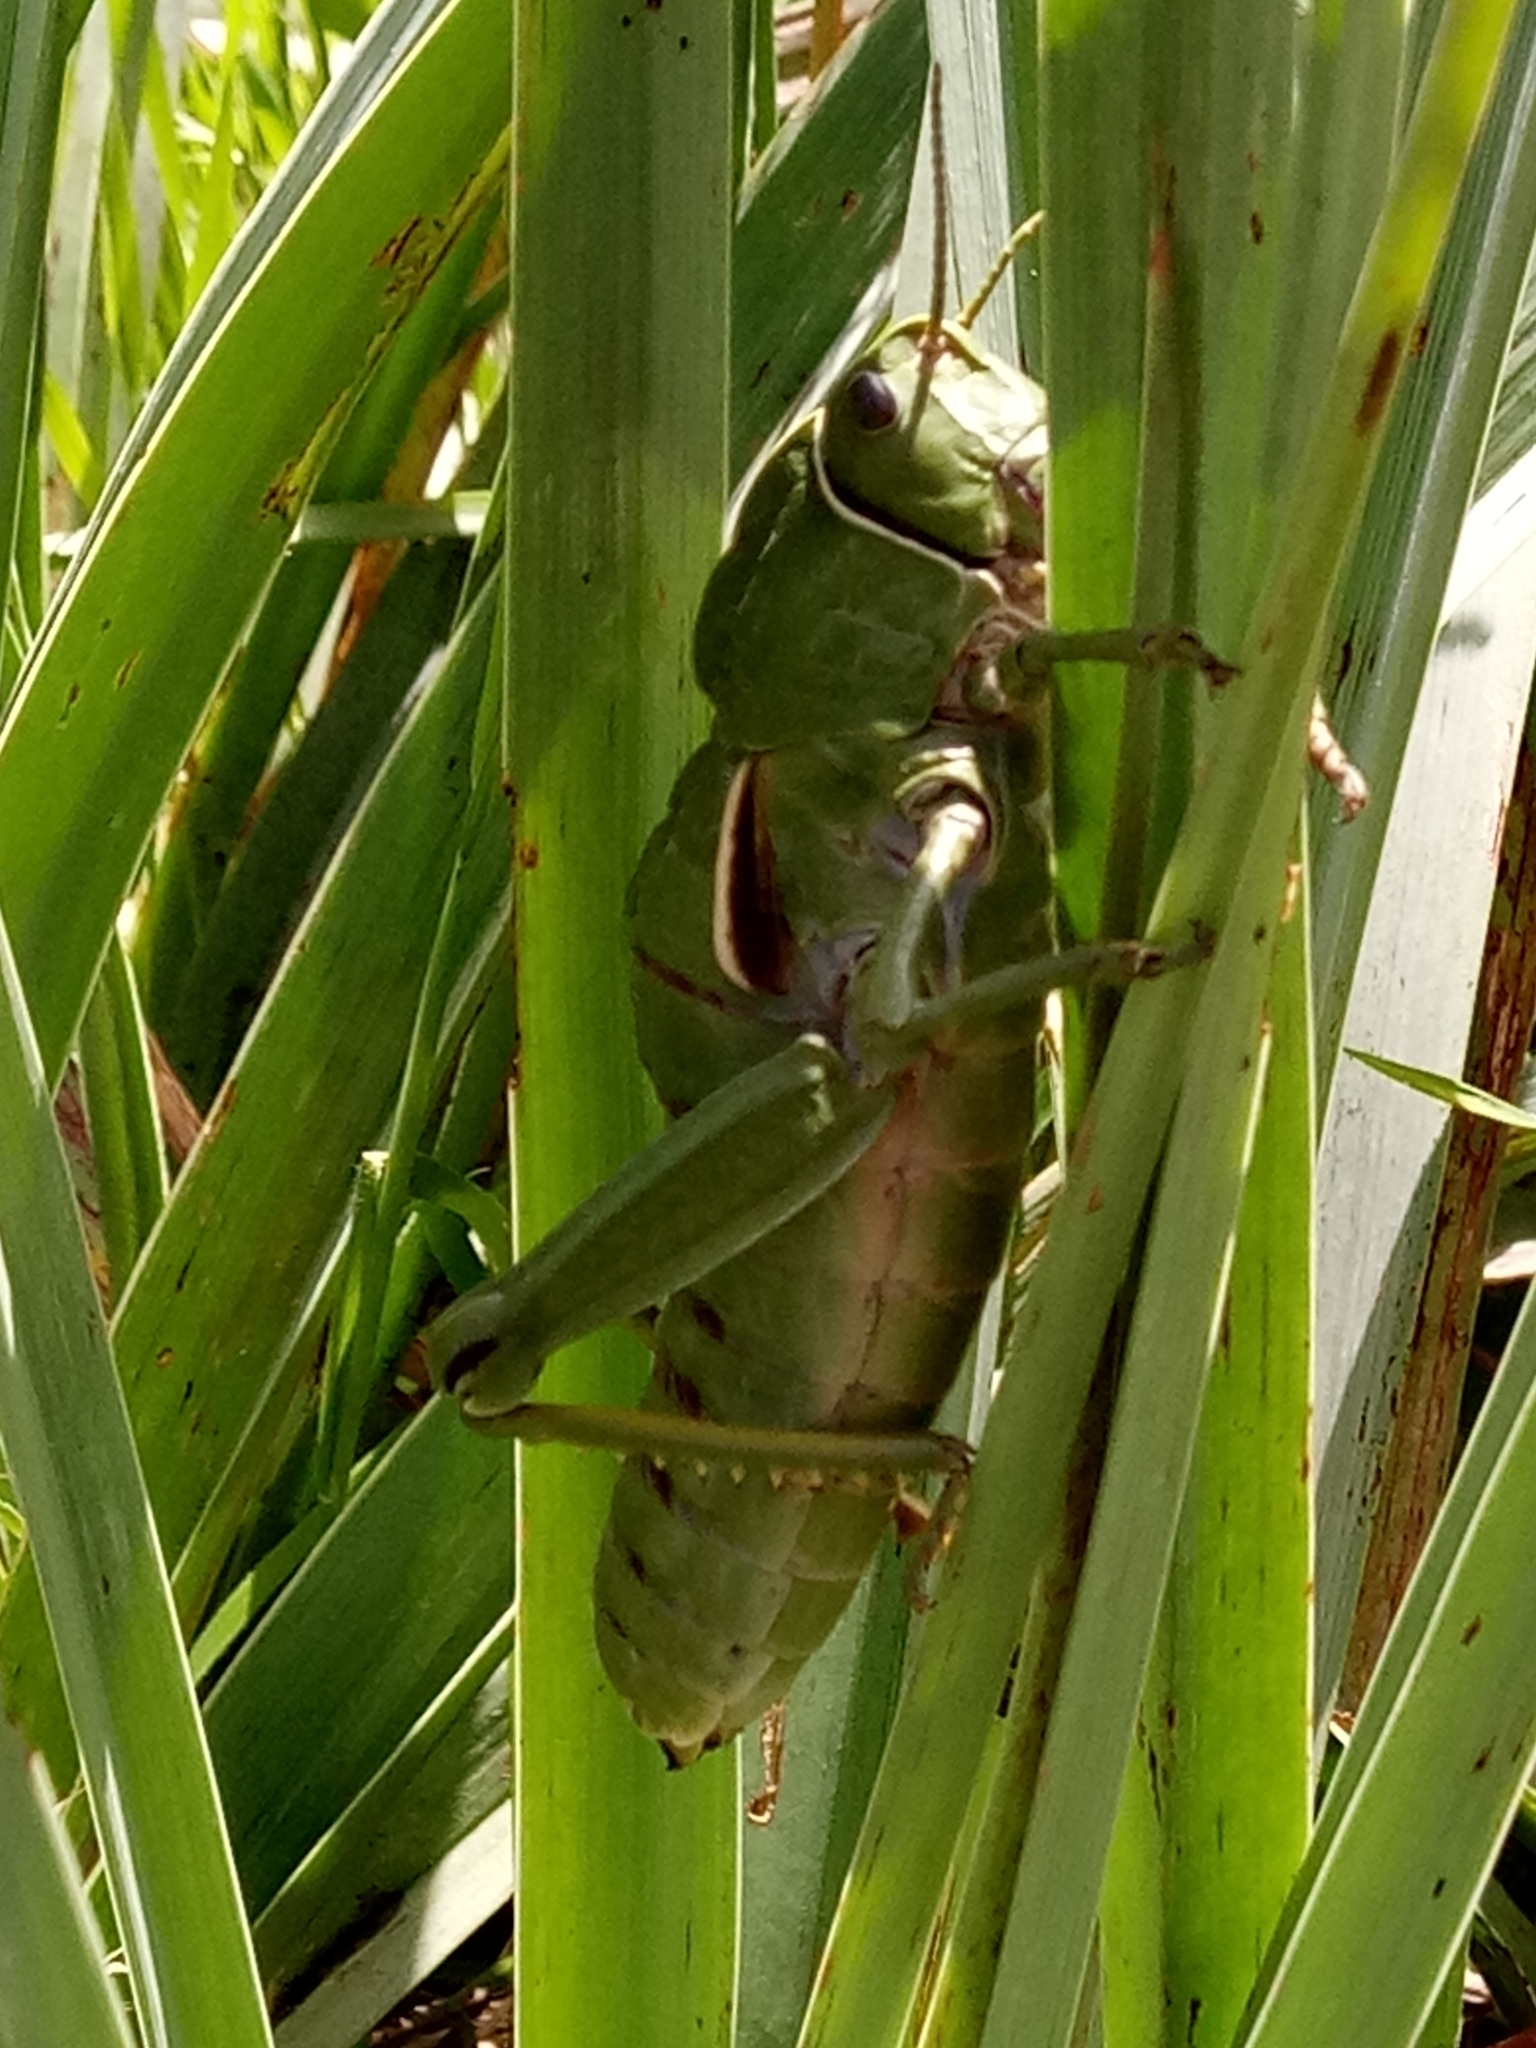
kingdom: Animalia
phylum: Arthropoda
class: Insecta
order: Orthoptera
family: Pamphagidae
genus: Pamphagus
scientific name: Pamphagus milevitanus
